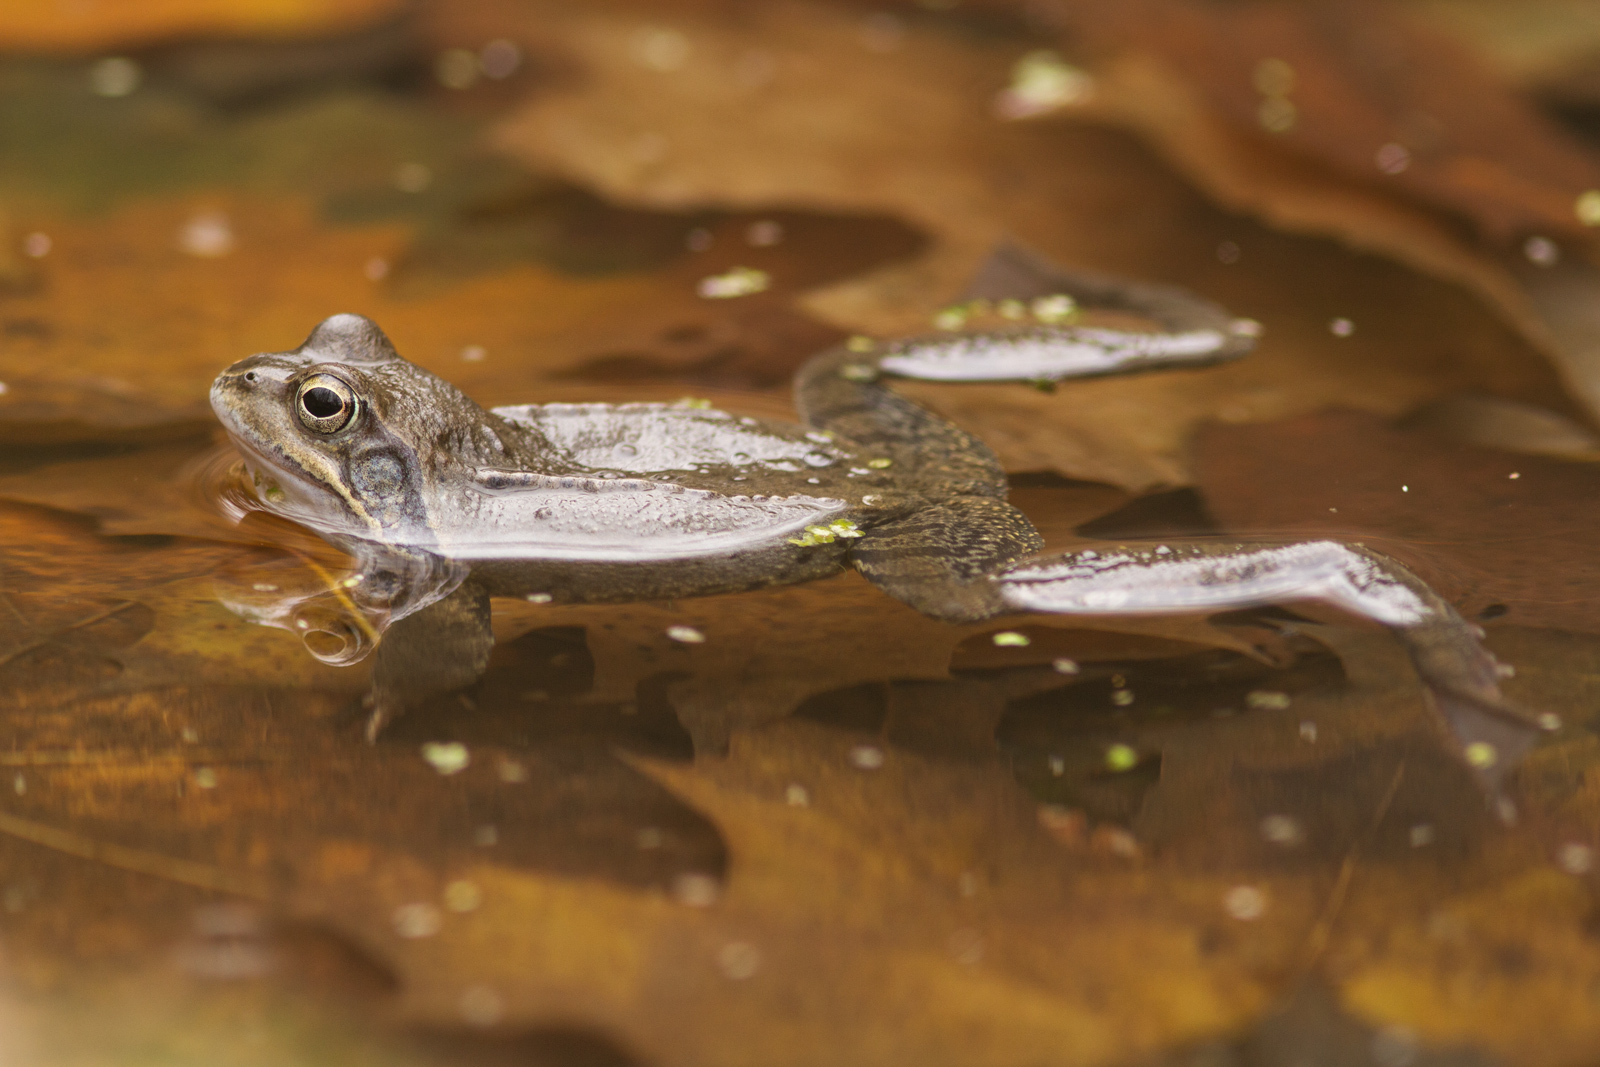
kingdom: Animalia
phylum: Chordata
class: Amphibia
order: Anura
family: Ranidae
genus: Rana
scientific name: Rana temporaria
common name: Common frog
